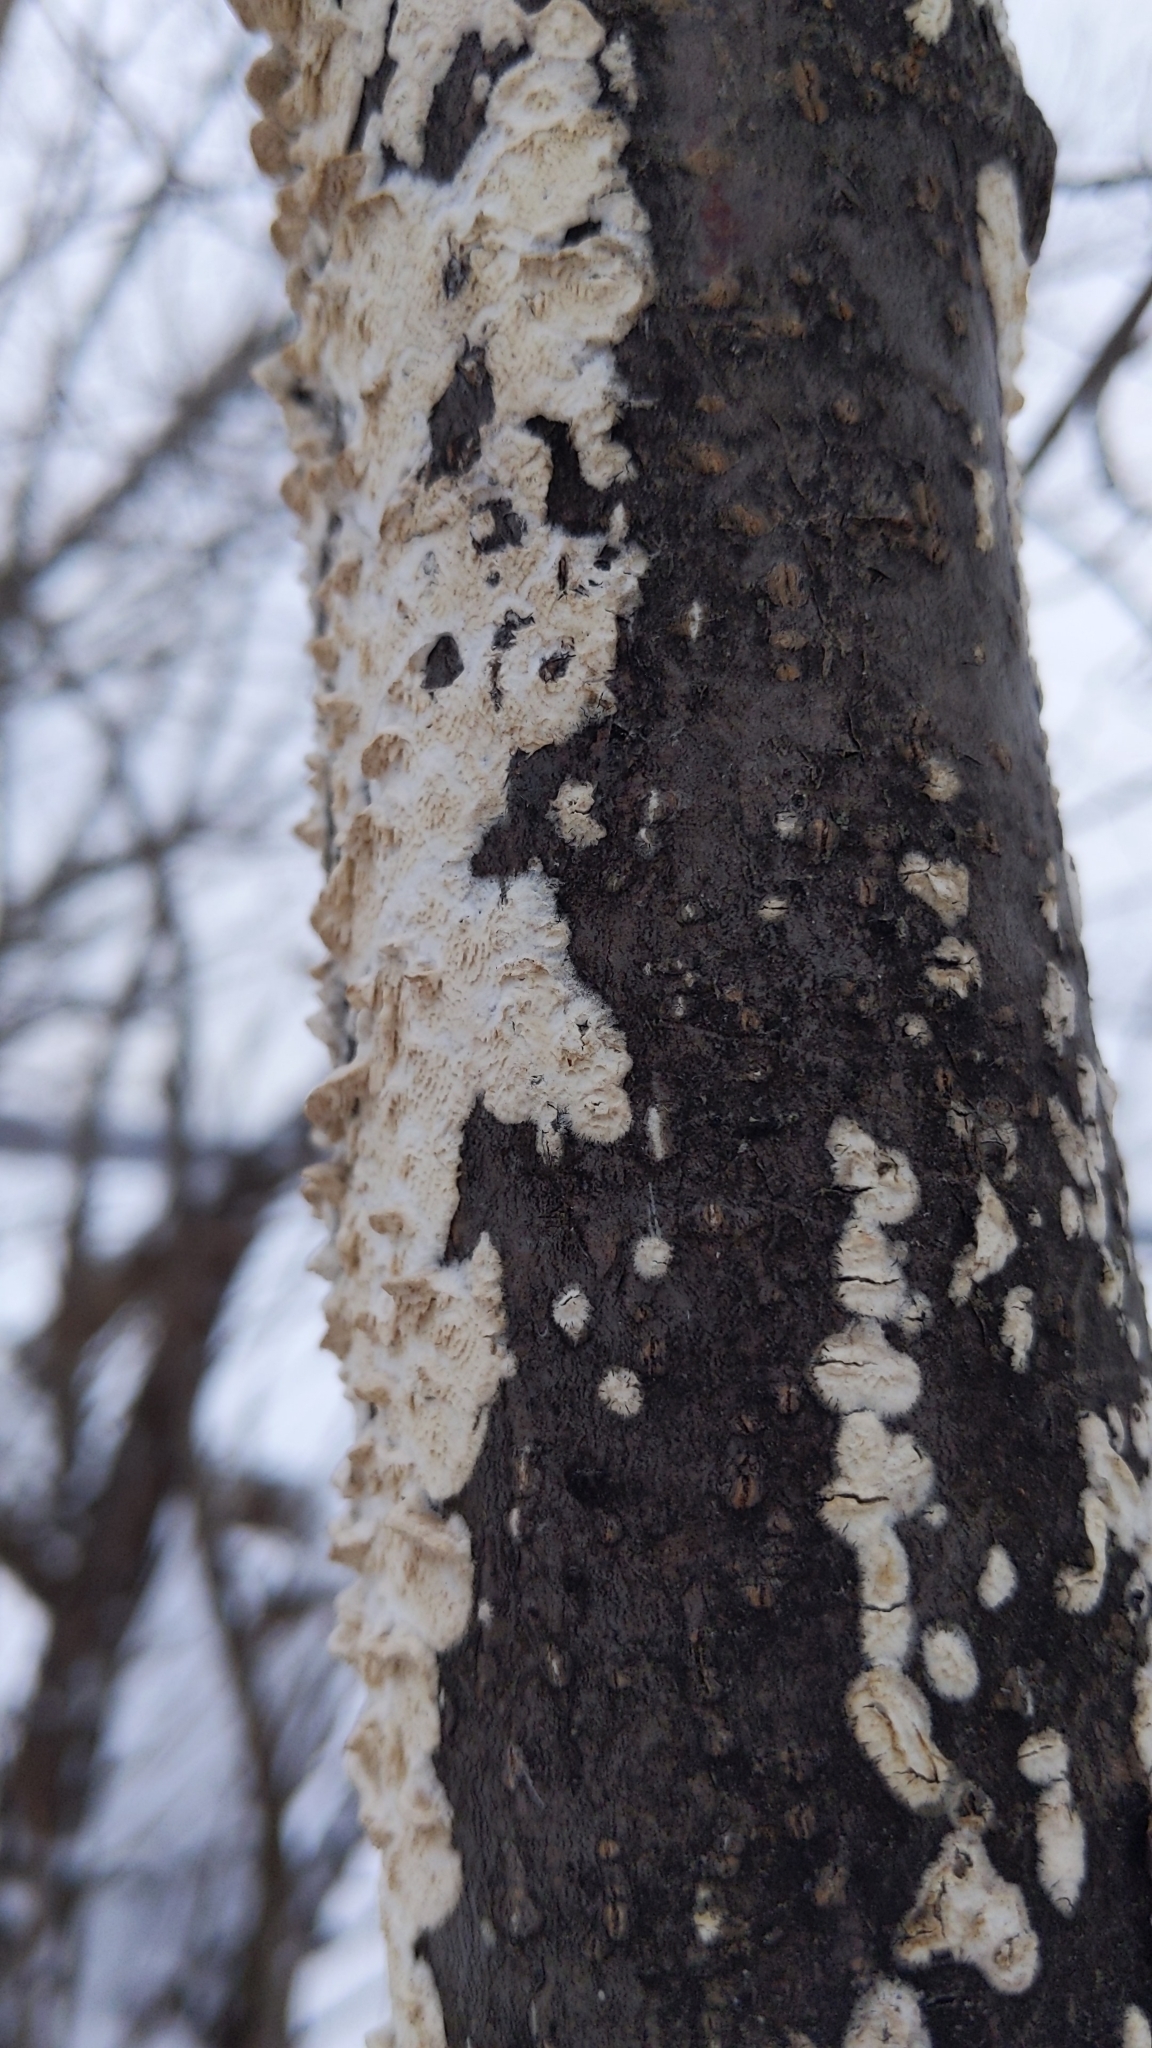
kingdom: Fungi
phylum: Basidiomycota
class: Agaricomycetes
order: Polyporales
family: Irpicaceae
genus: Irpex
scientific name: Irpex lacteus
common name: Milk-white toothed polypore
